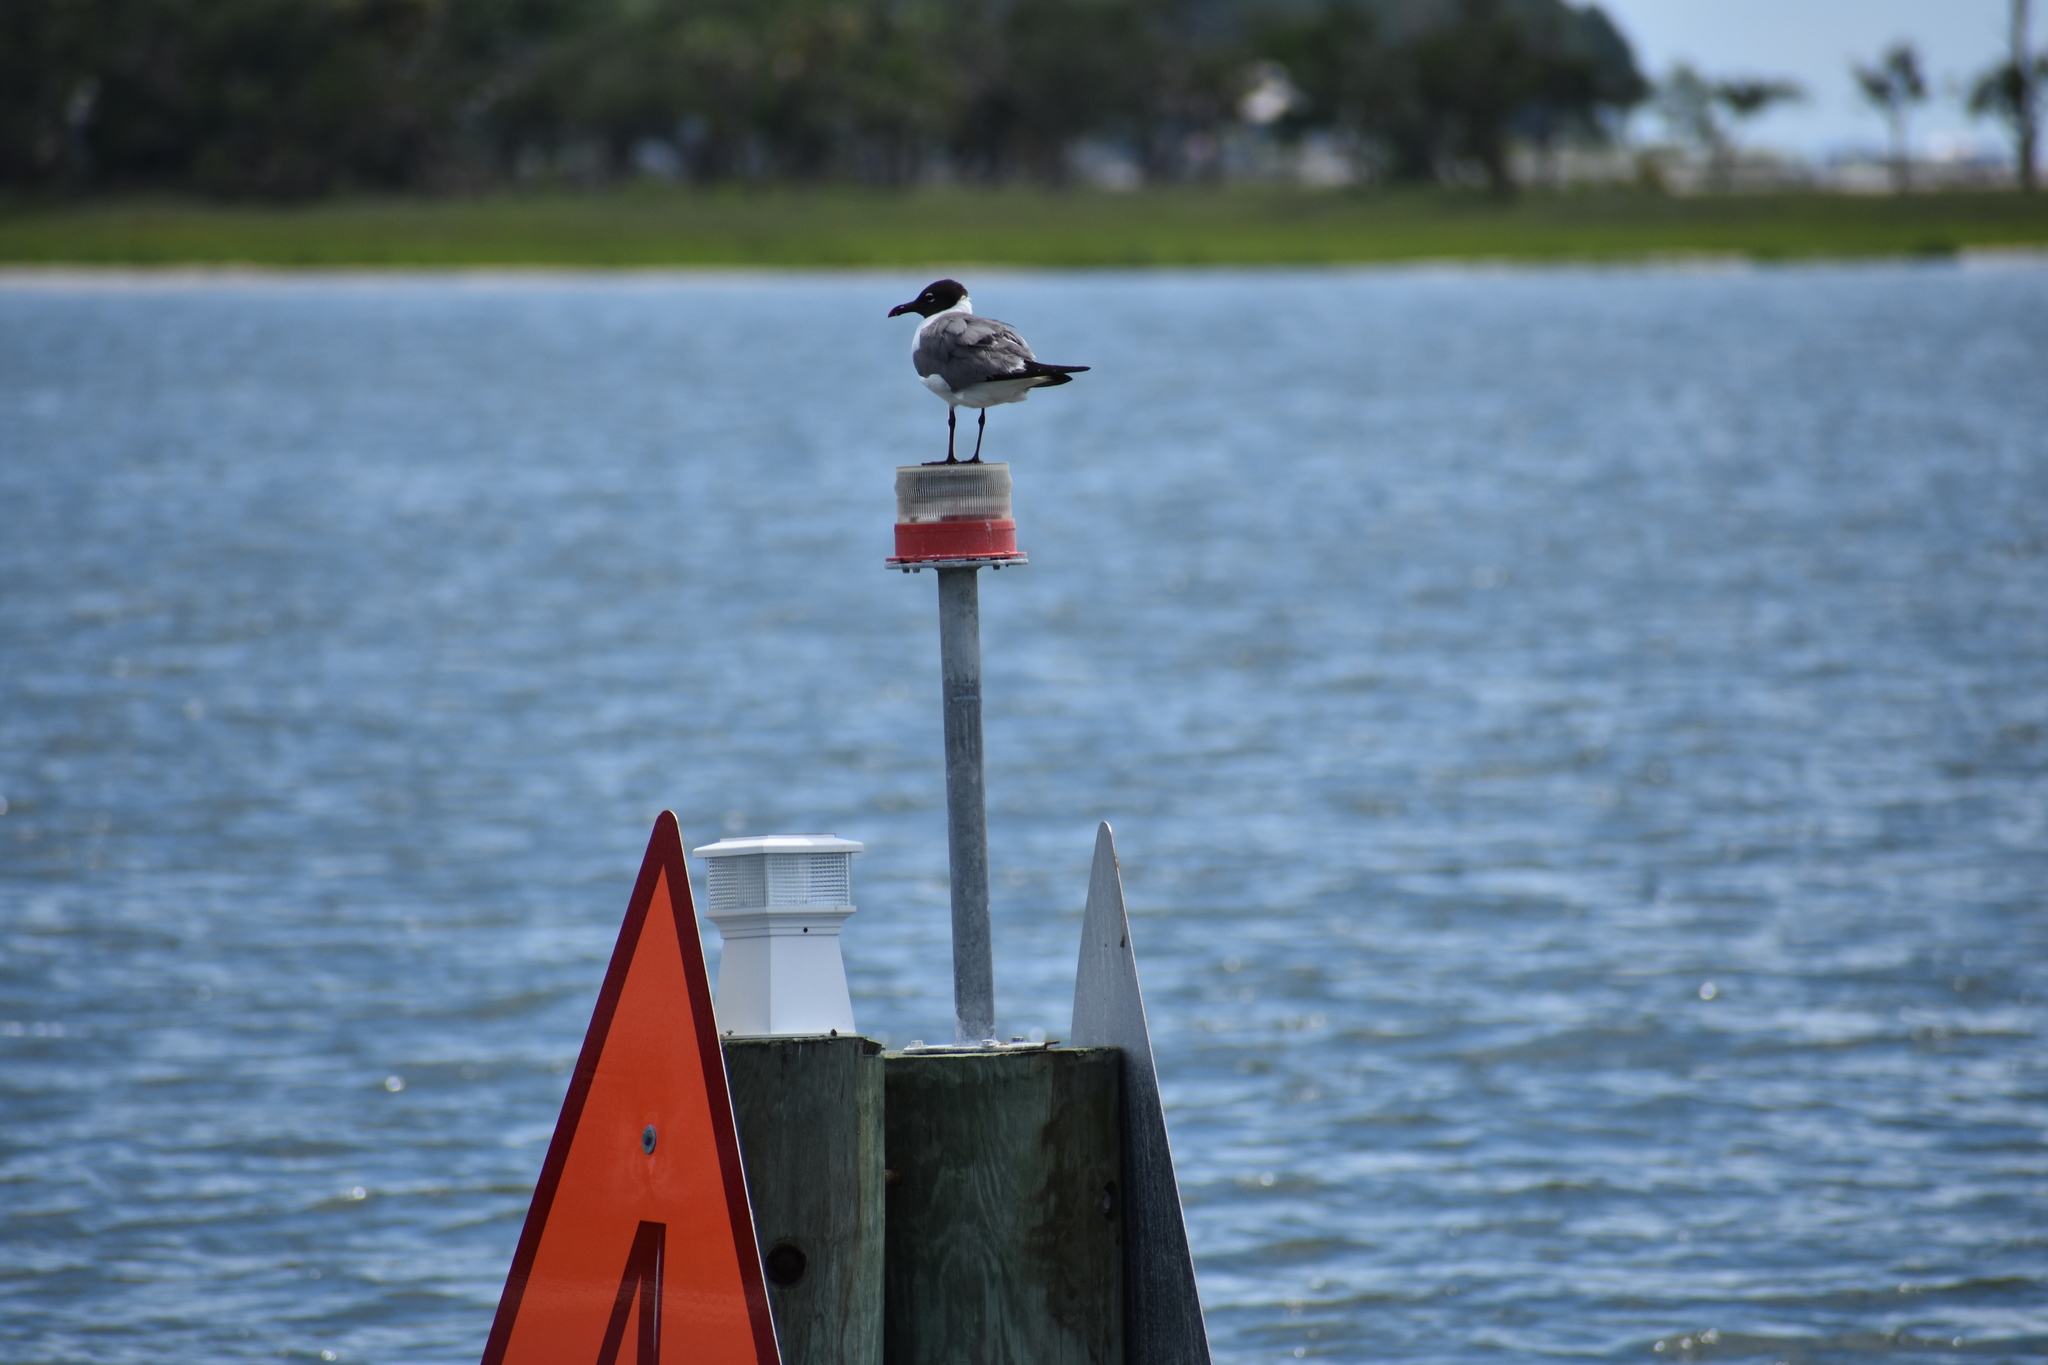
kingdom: Animalia
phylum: Chordata
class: Aves
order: Charadriiformes
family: Laridae
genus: Leucophaeus
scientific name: Leucophaeus atricilla
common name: Laughing gull
